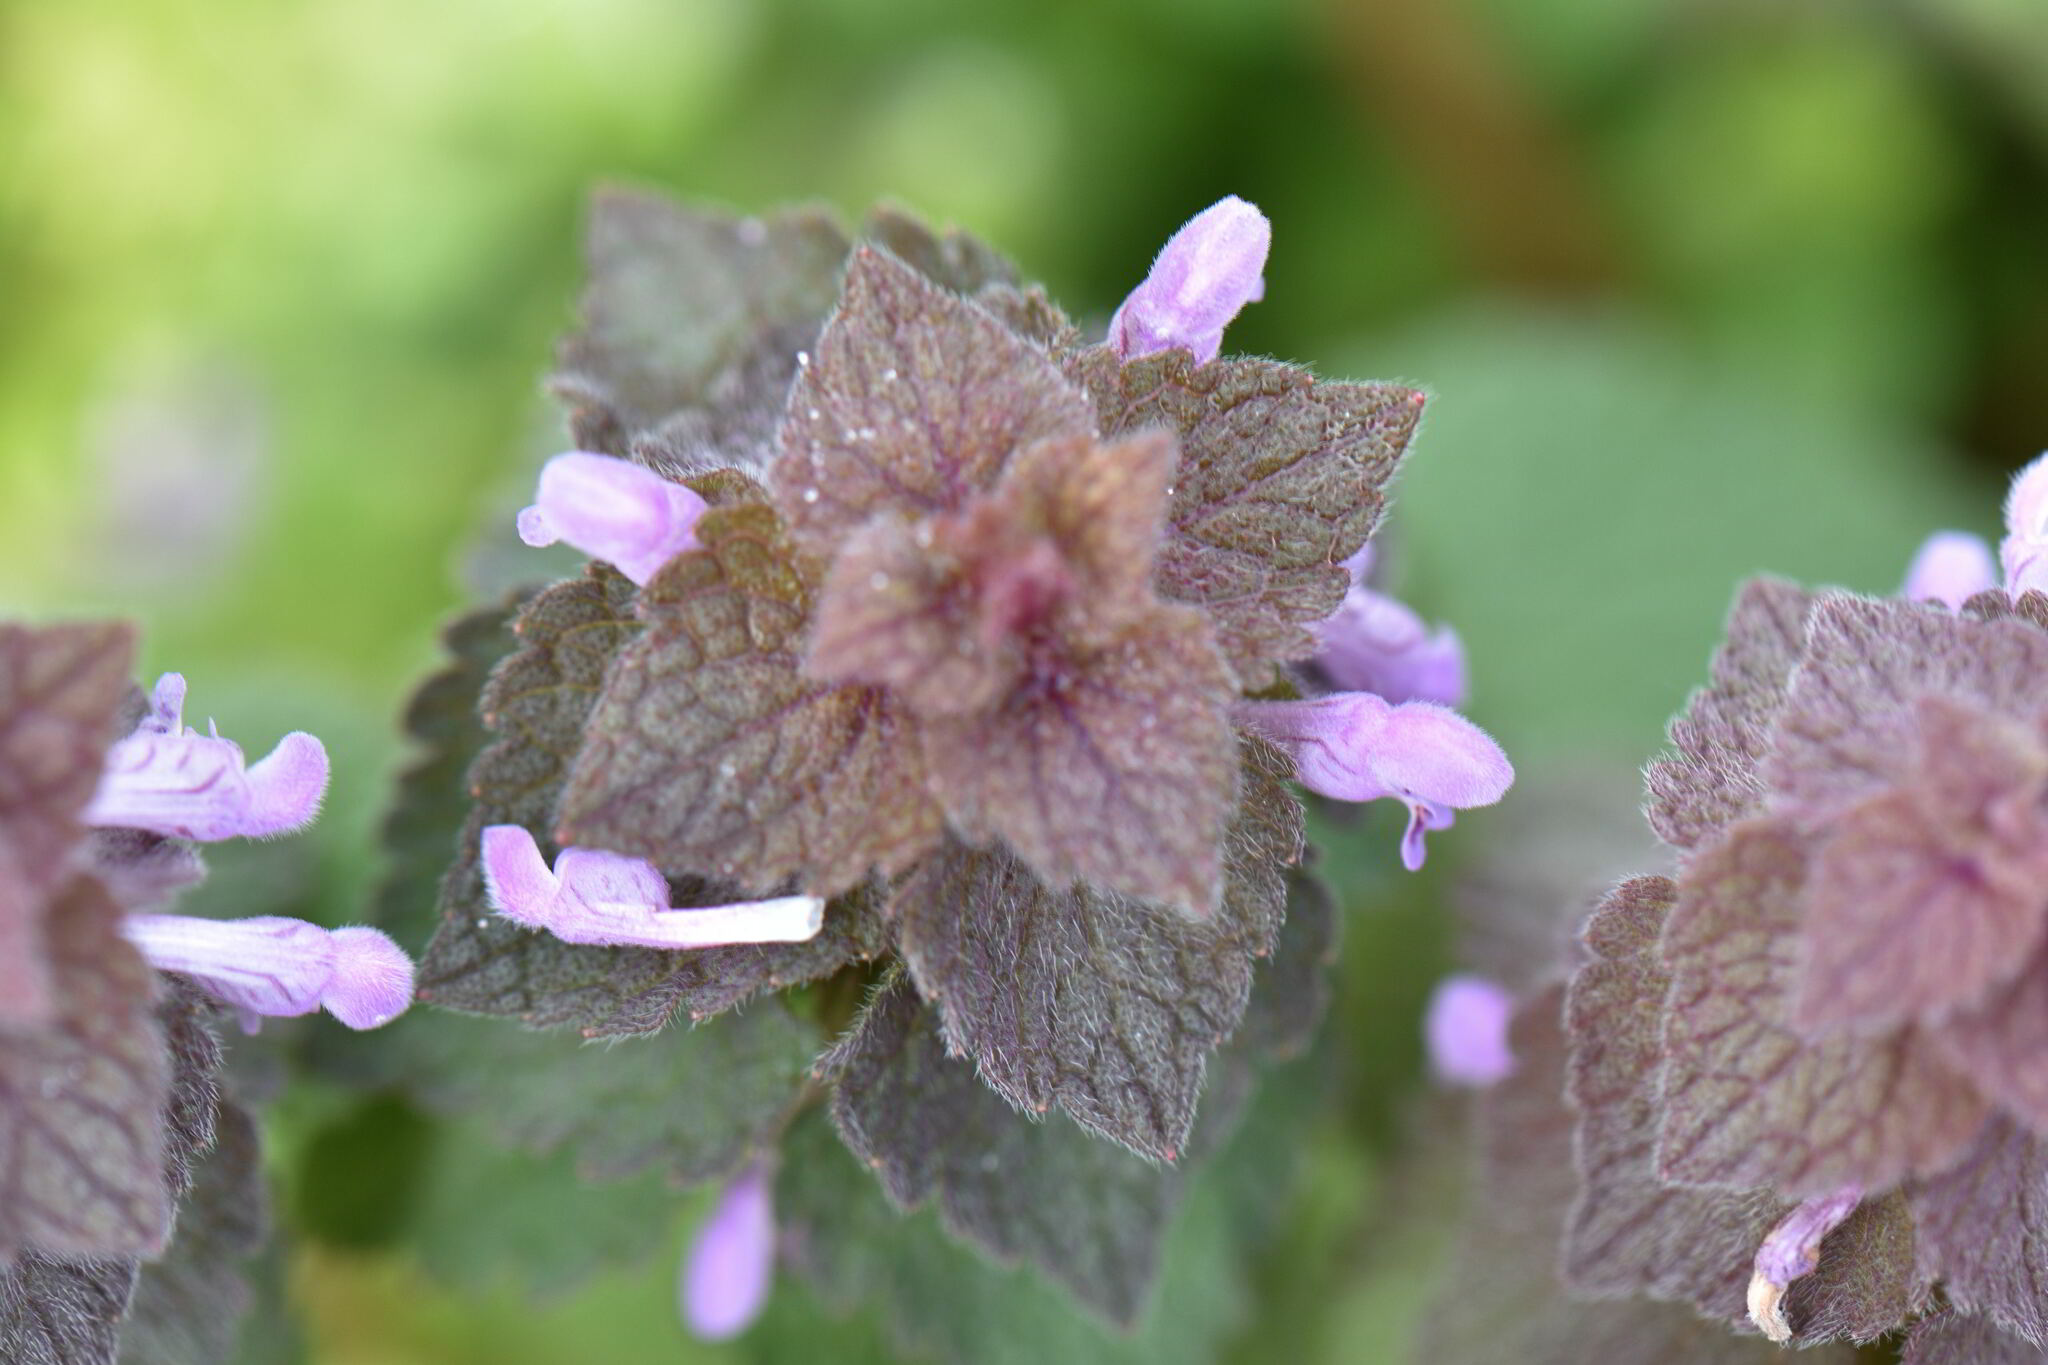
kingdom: Plantae
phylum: Tracheophyta
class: Magnoliopsida
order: Lamiales
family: Lamiaceae
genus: Lamium
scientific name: Lamium purpureum
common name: Red dead-nettle
